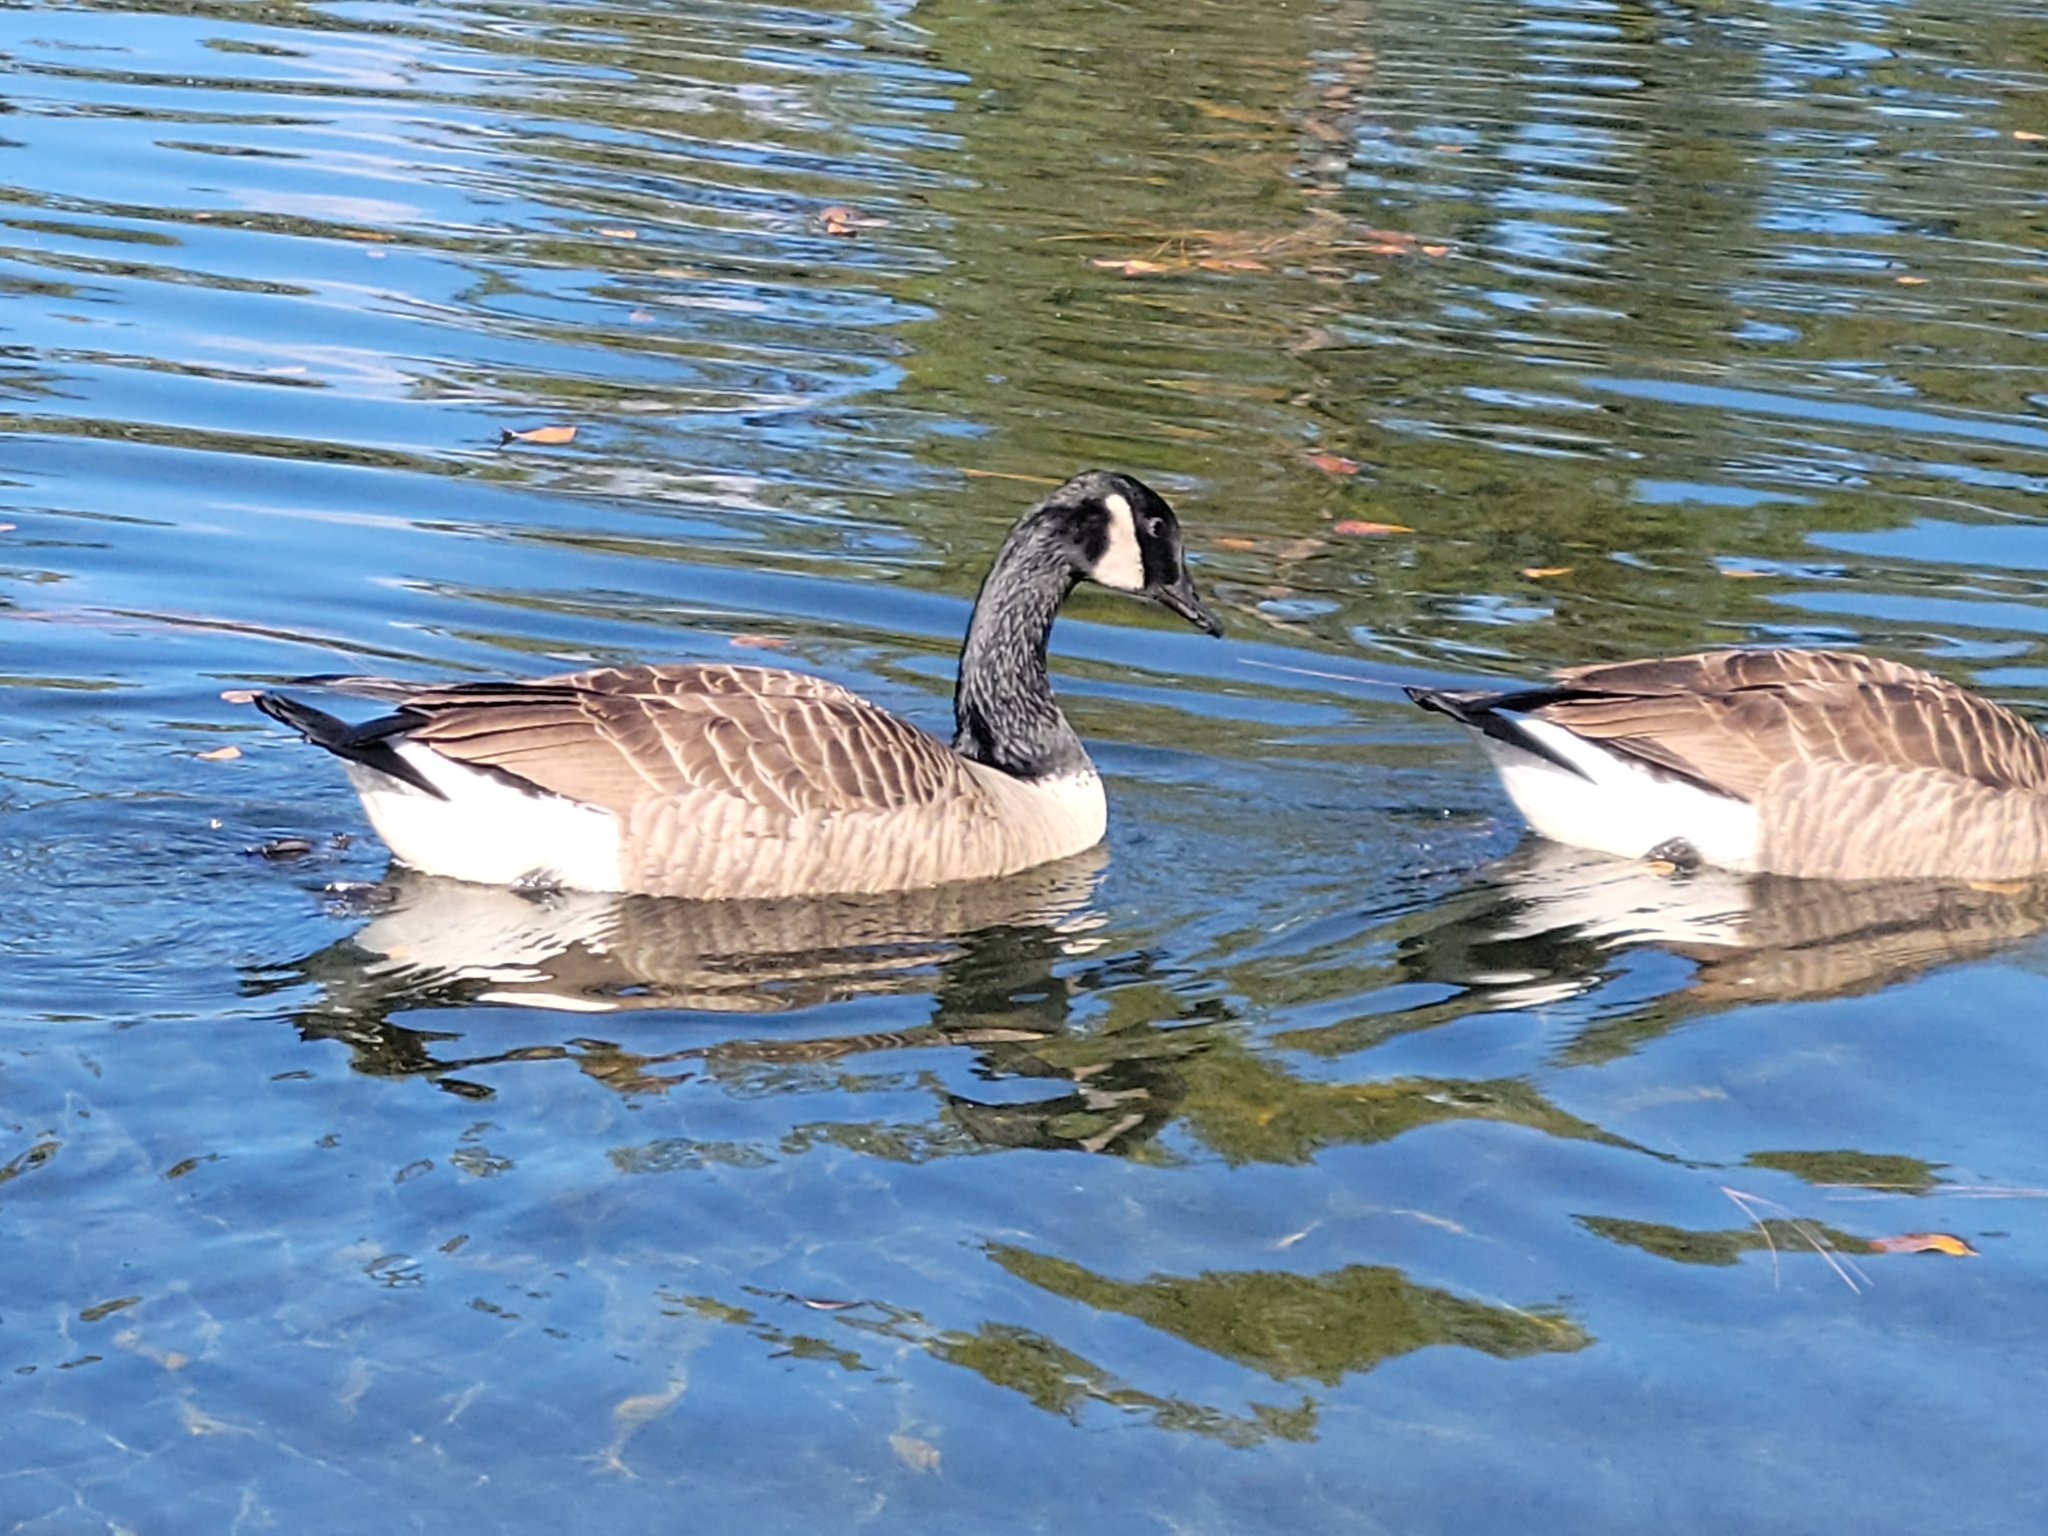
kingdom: Animalia
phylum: Chordata
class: Aves
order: Anseriformes
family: Anatidae
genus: Branta
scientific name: Branta canadensis
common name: Canada goose
